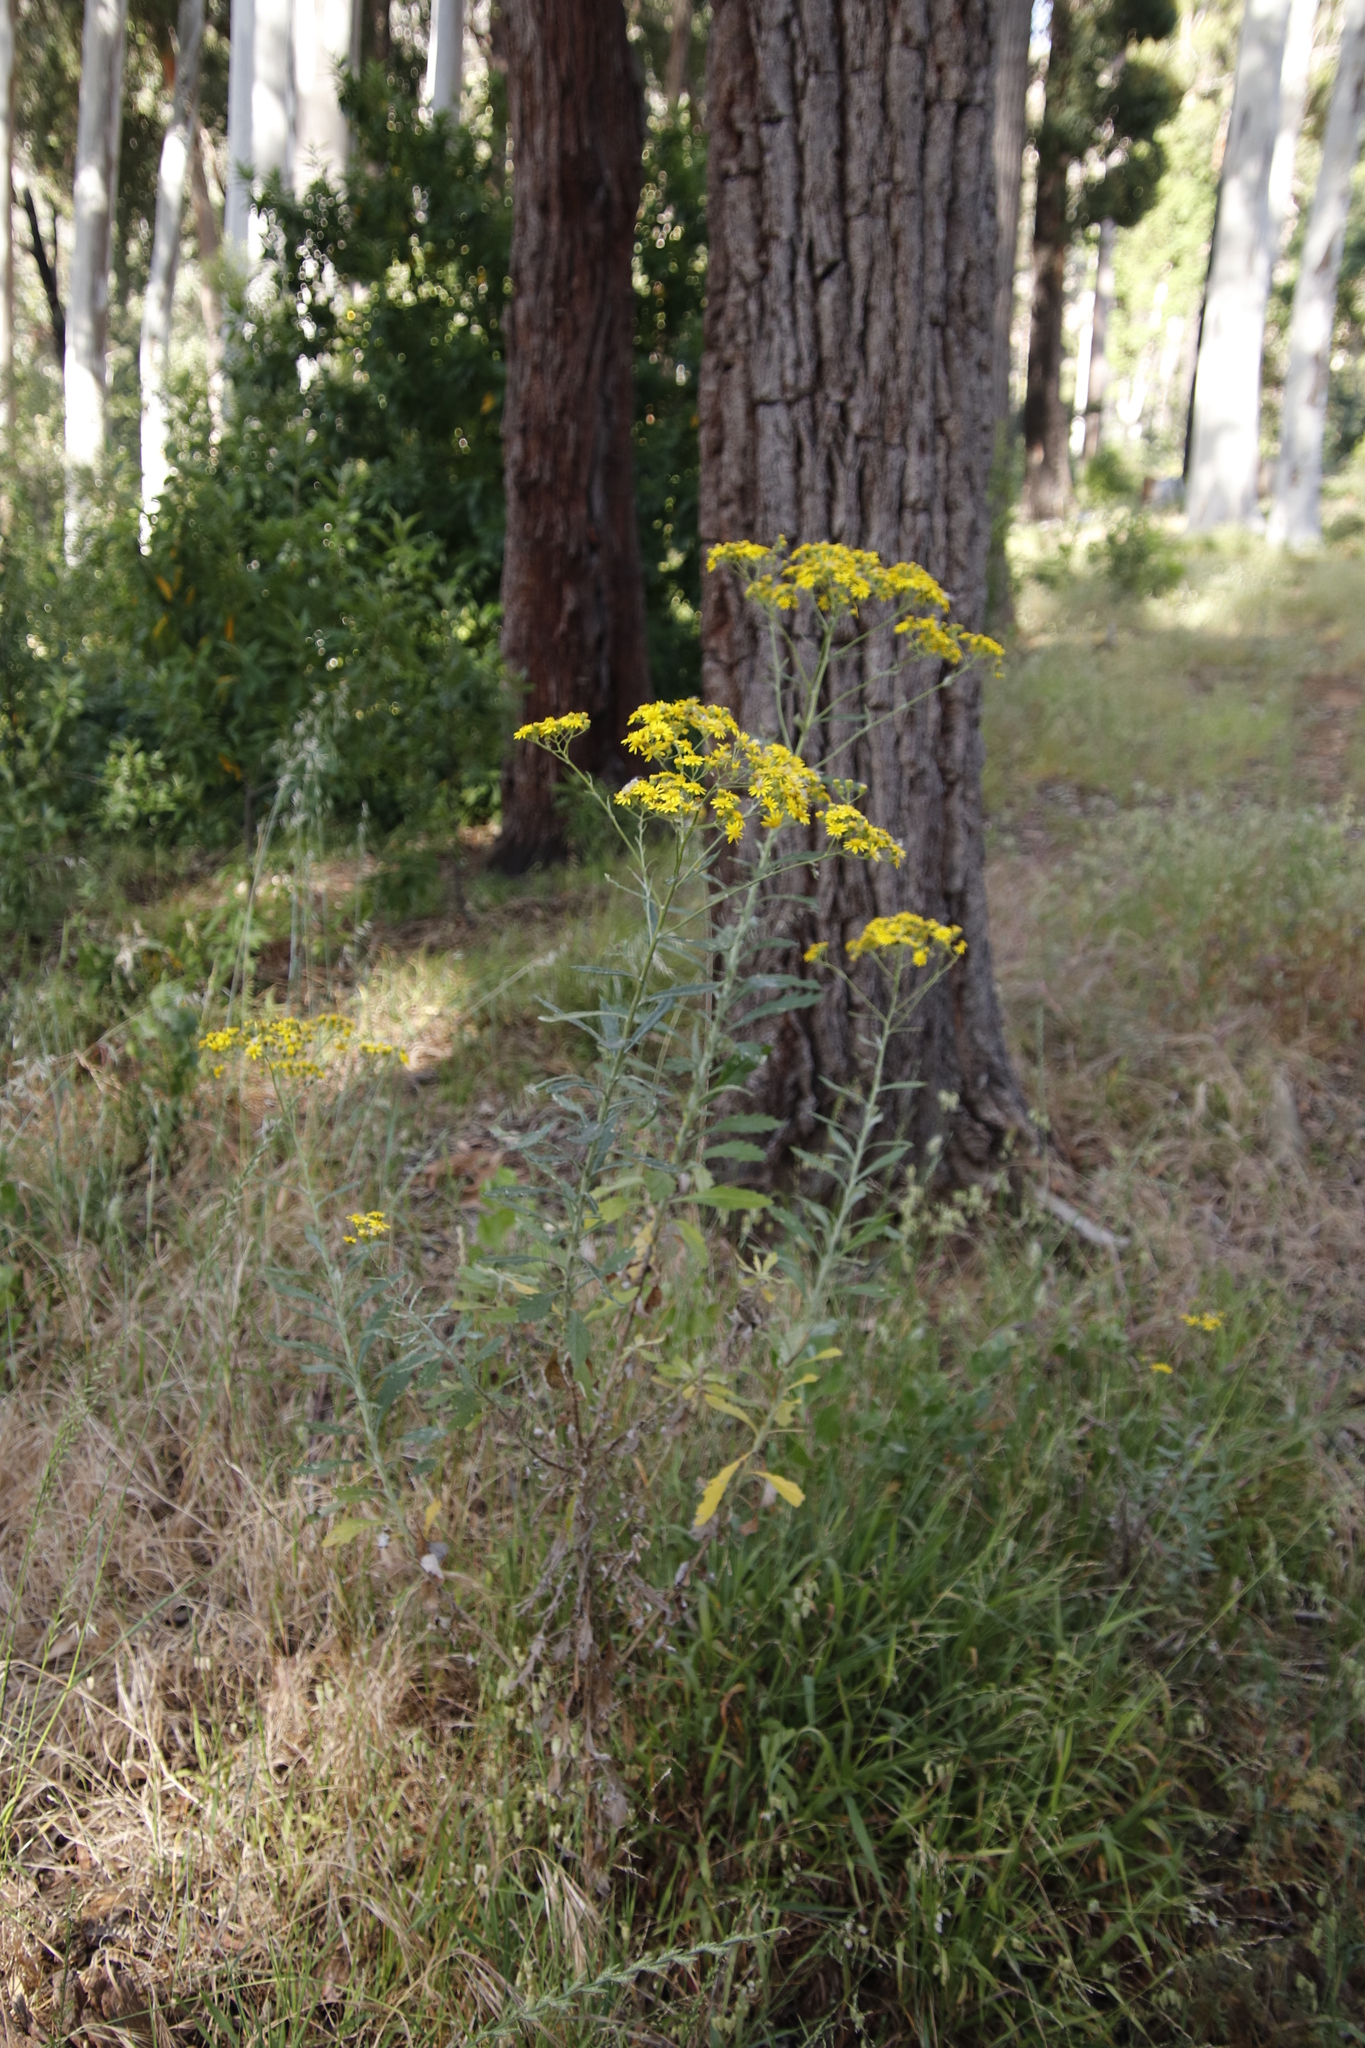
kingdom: Plantae
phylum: Tracheophyta
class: Magnoliopsida
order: Asterales
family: Asteraceae
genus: Senecio
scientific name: Senecio pterophorus
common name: Shoddy ragwort
